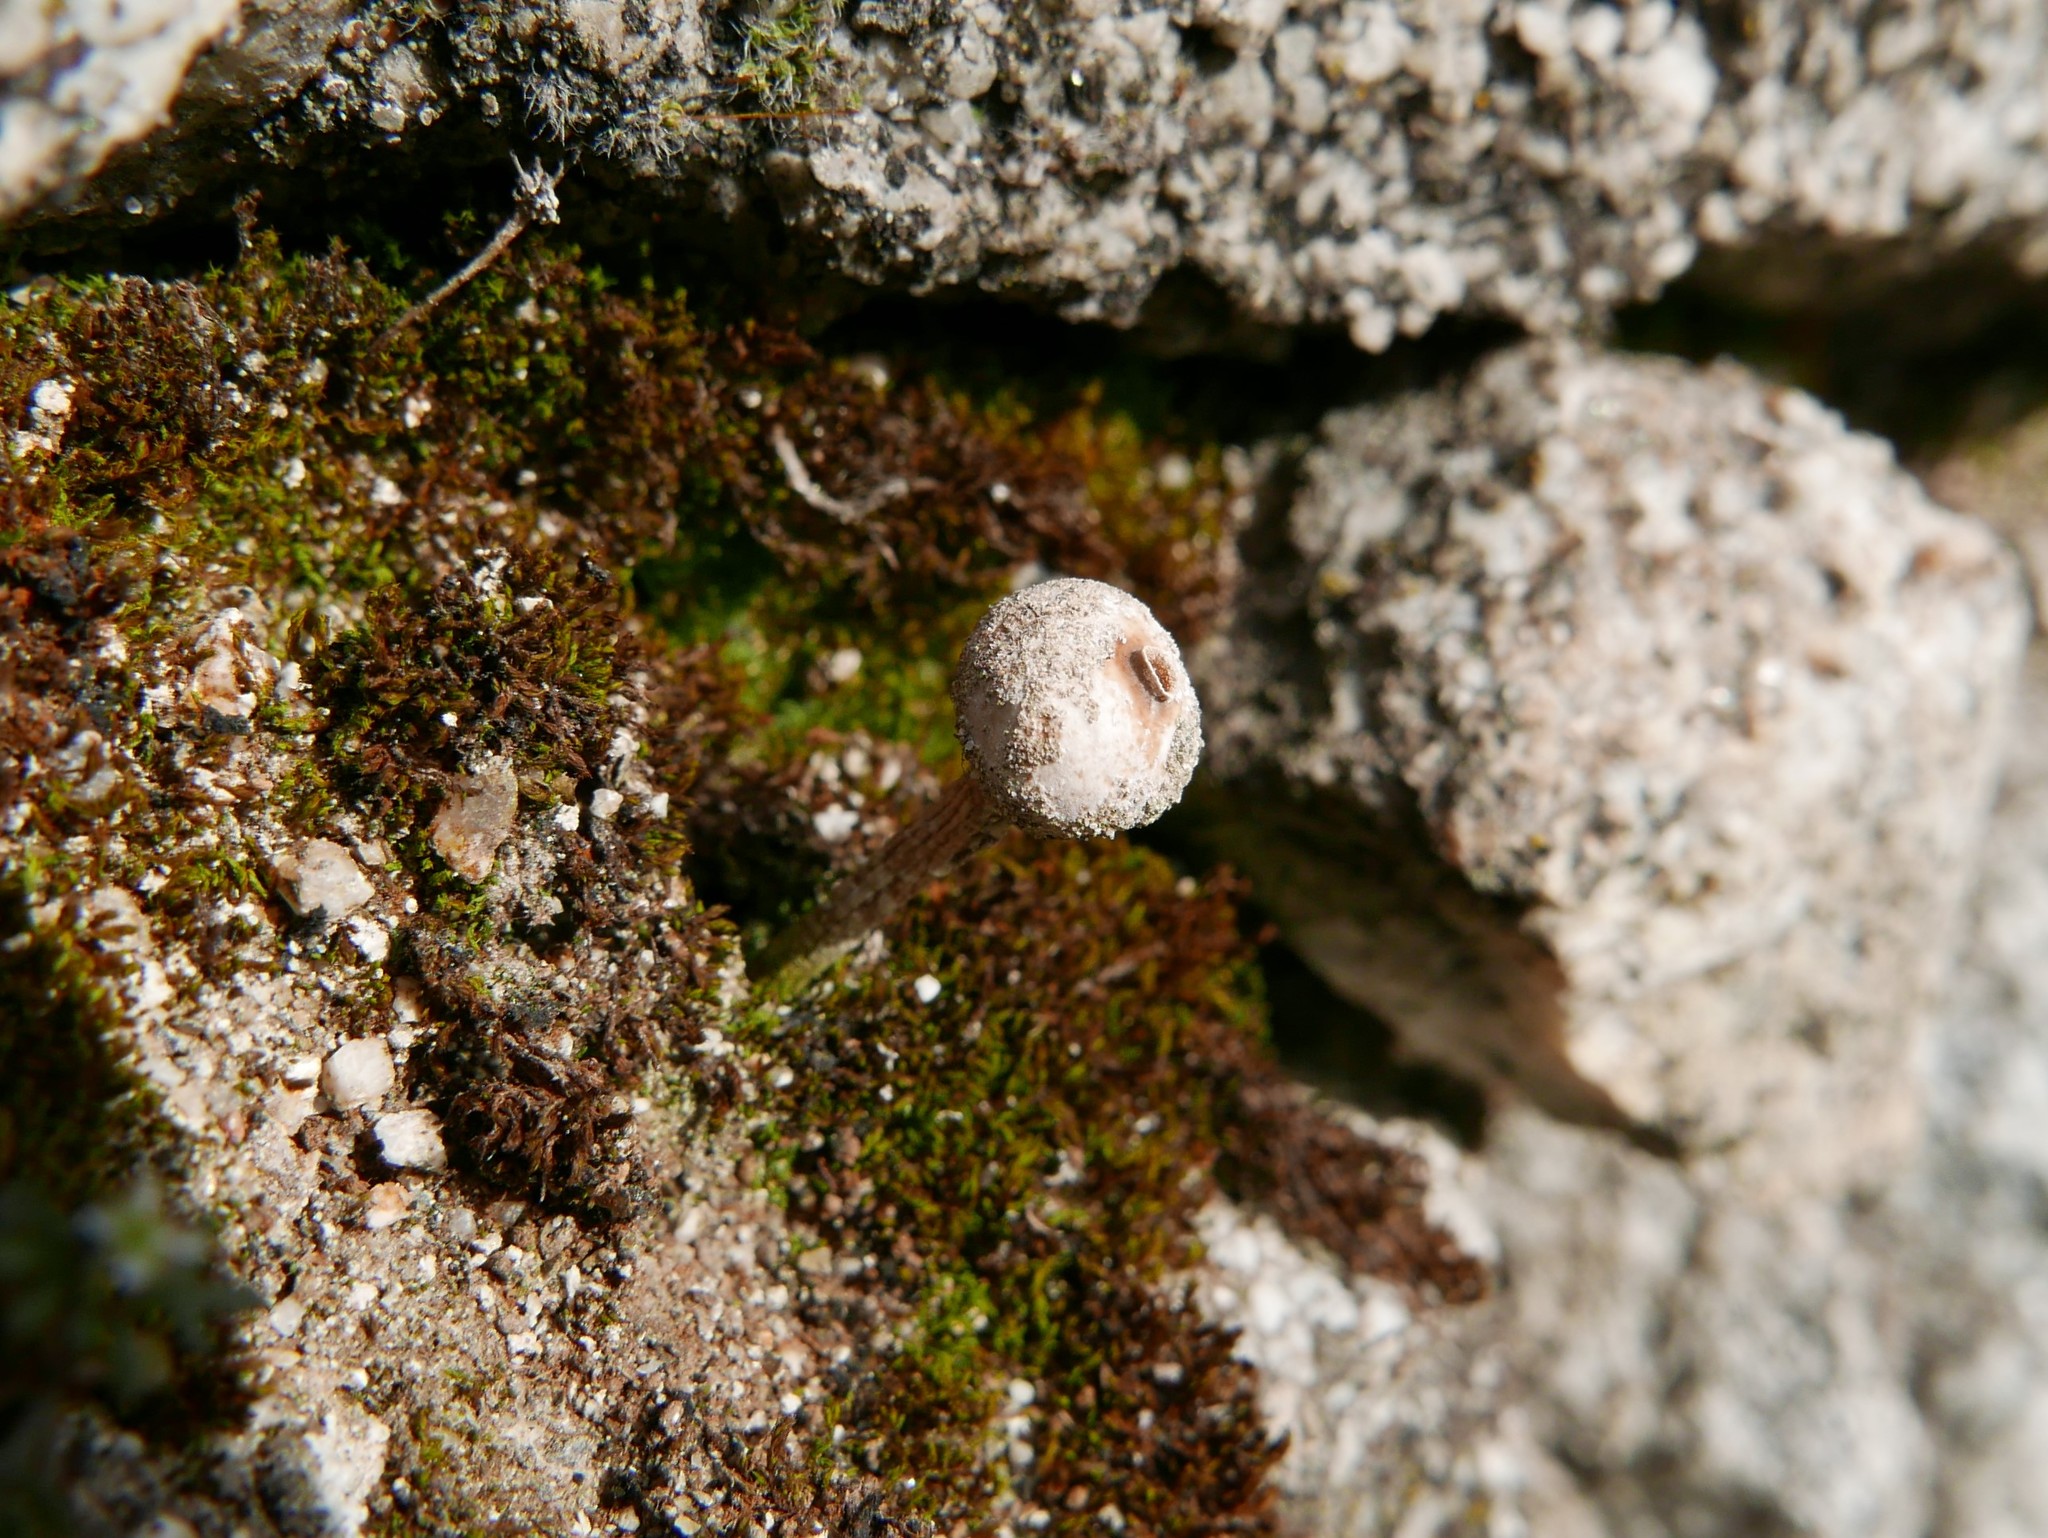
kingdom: Fungi
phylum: Basidiomycota
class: Agaricomycetes
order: Agaricales
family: Agaricaceae
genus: Tulostoma
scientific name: Tulostoma brumale
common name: Winter stalk puffball
